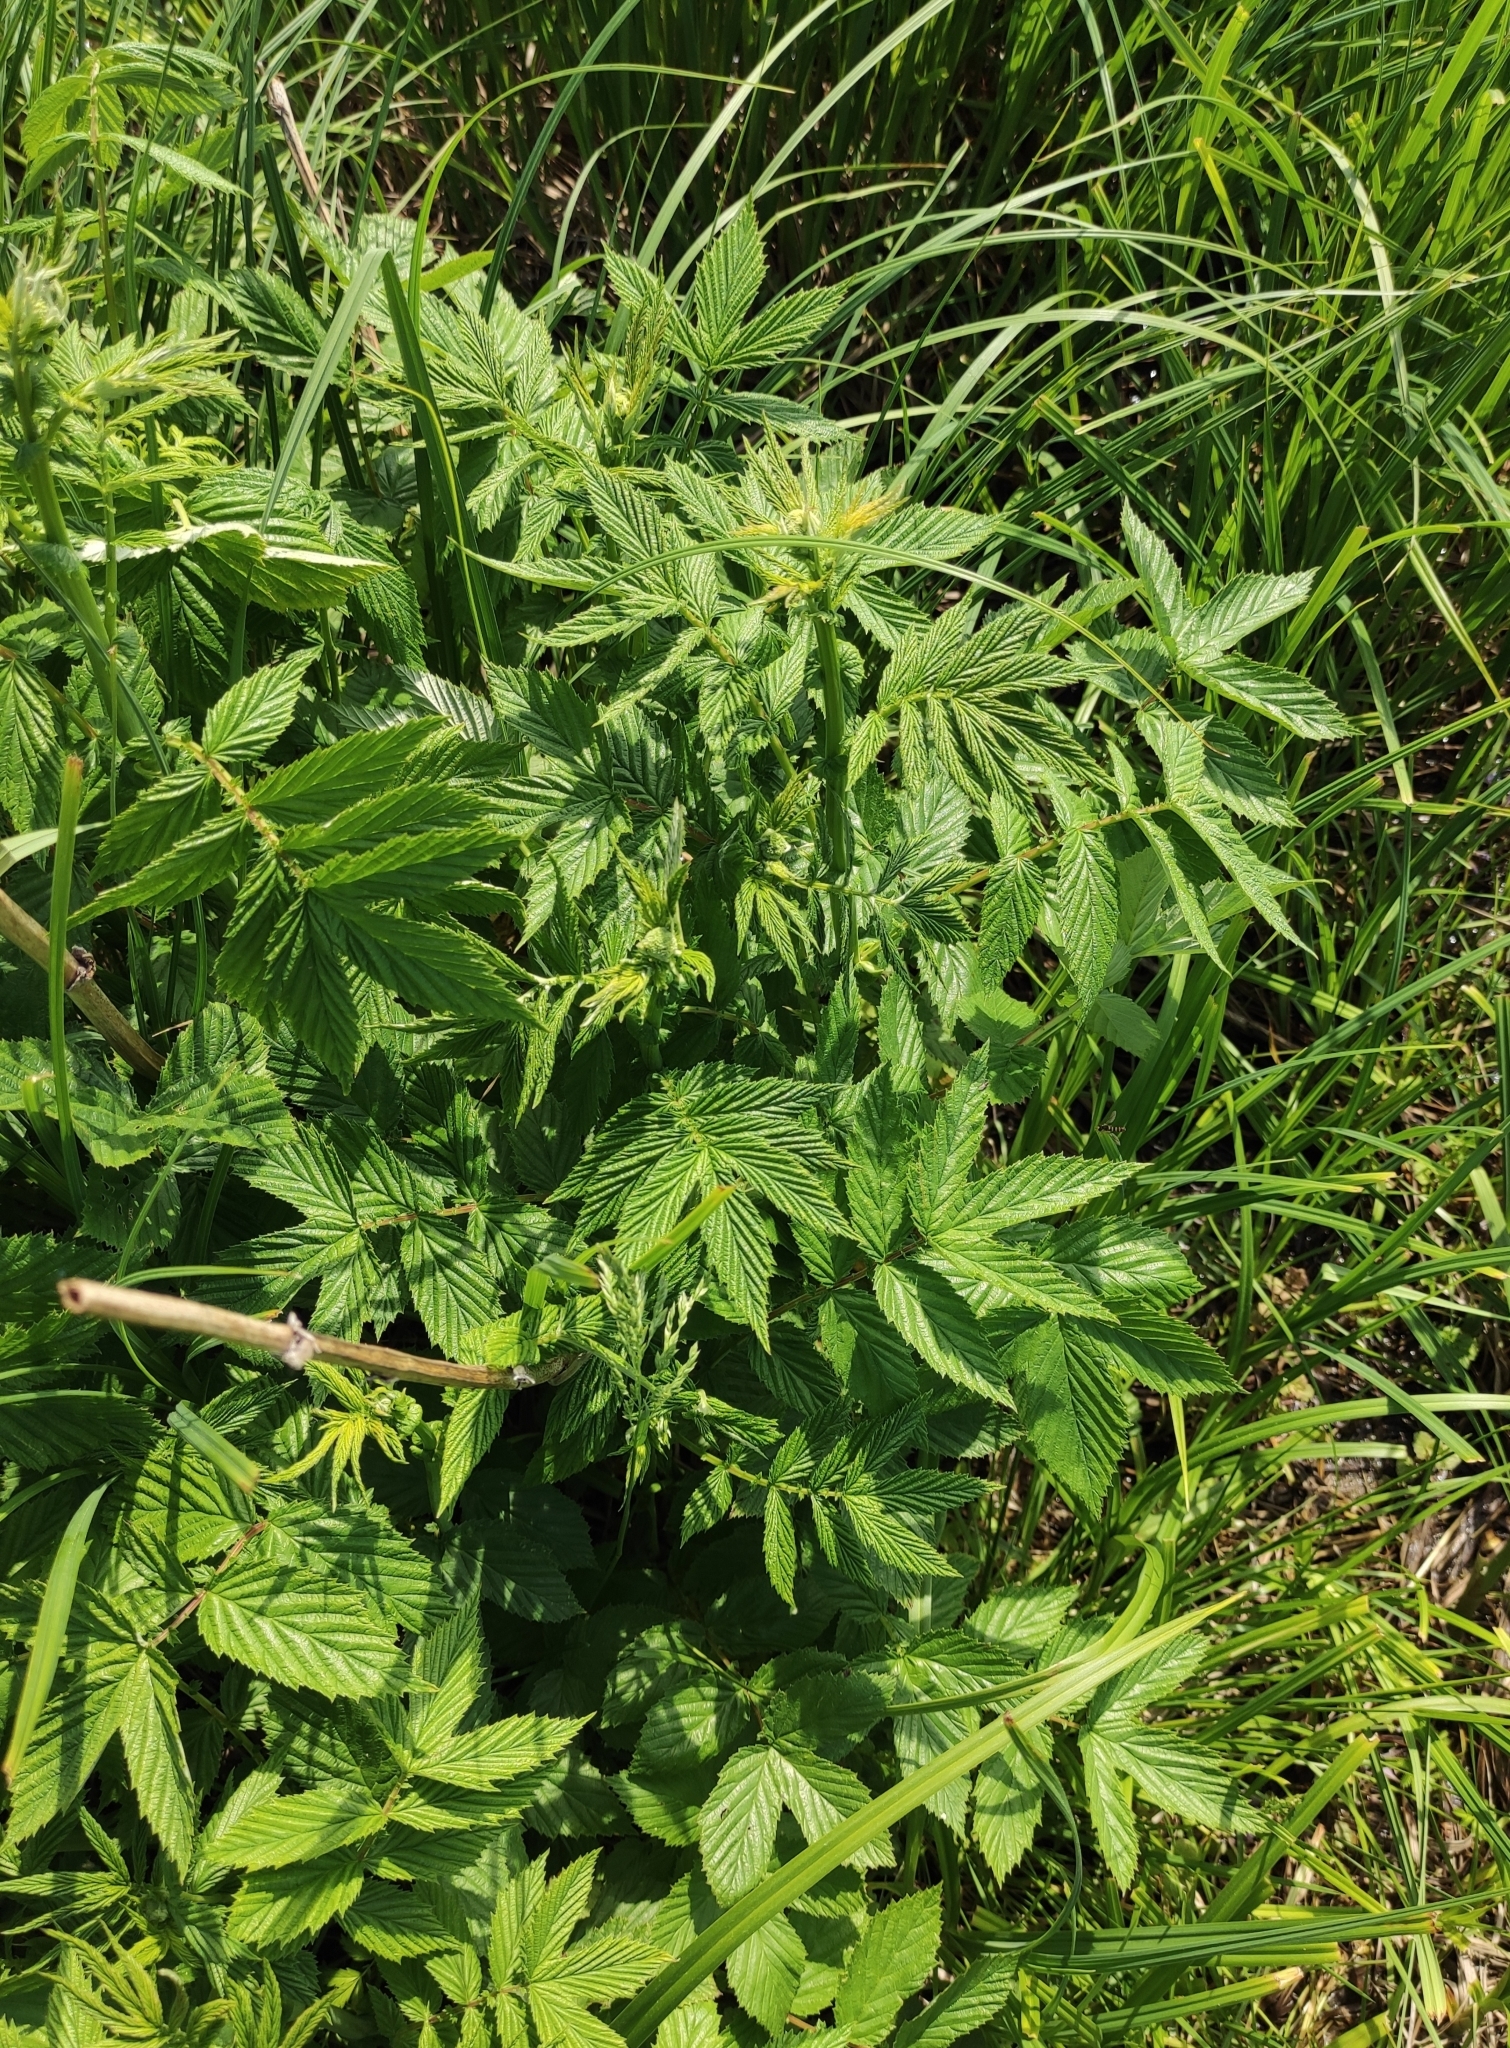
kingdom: Plantae
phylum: Tracheophyta
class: Magnoliopsida
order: Rosales
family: Rosaceae
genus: Filipendula
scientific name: Filipendula ulmaria
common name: Meadowsweet
